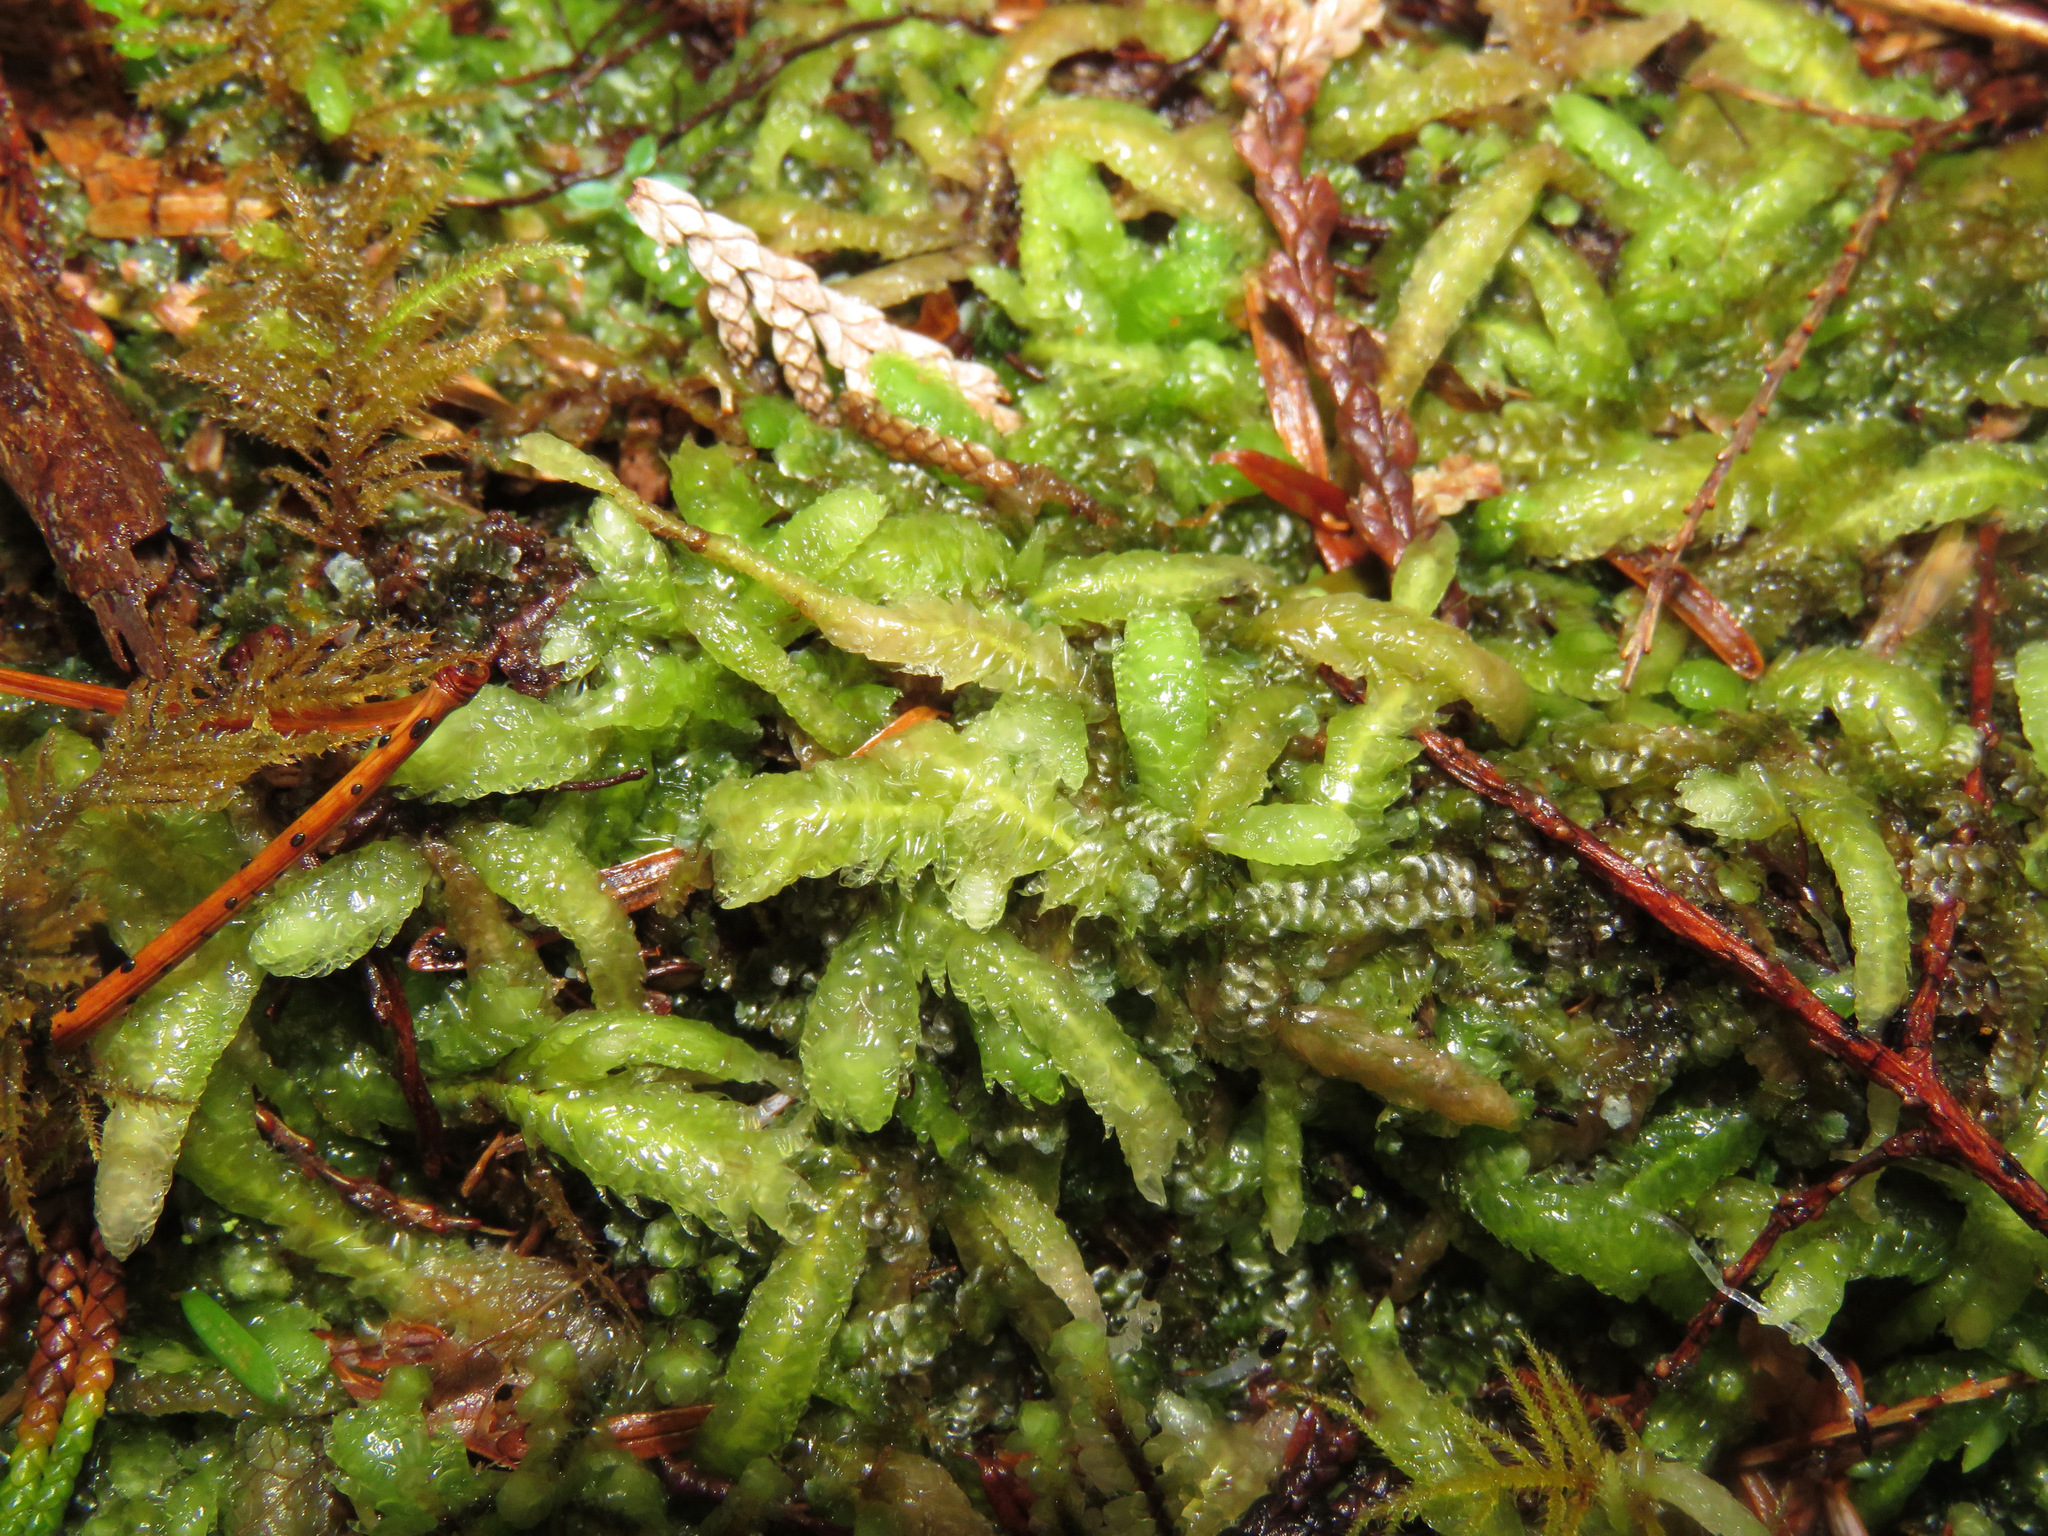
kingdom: Plantae
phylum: Bryophyta
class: Bryopsida
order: Hypnales
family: Plagiotheciaceae
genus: Plagiothecium
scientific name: Plagiothecium undulatum
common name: Waved silk-moss
